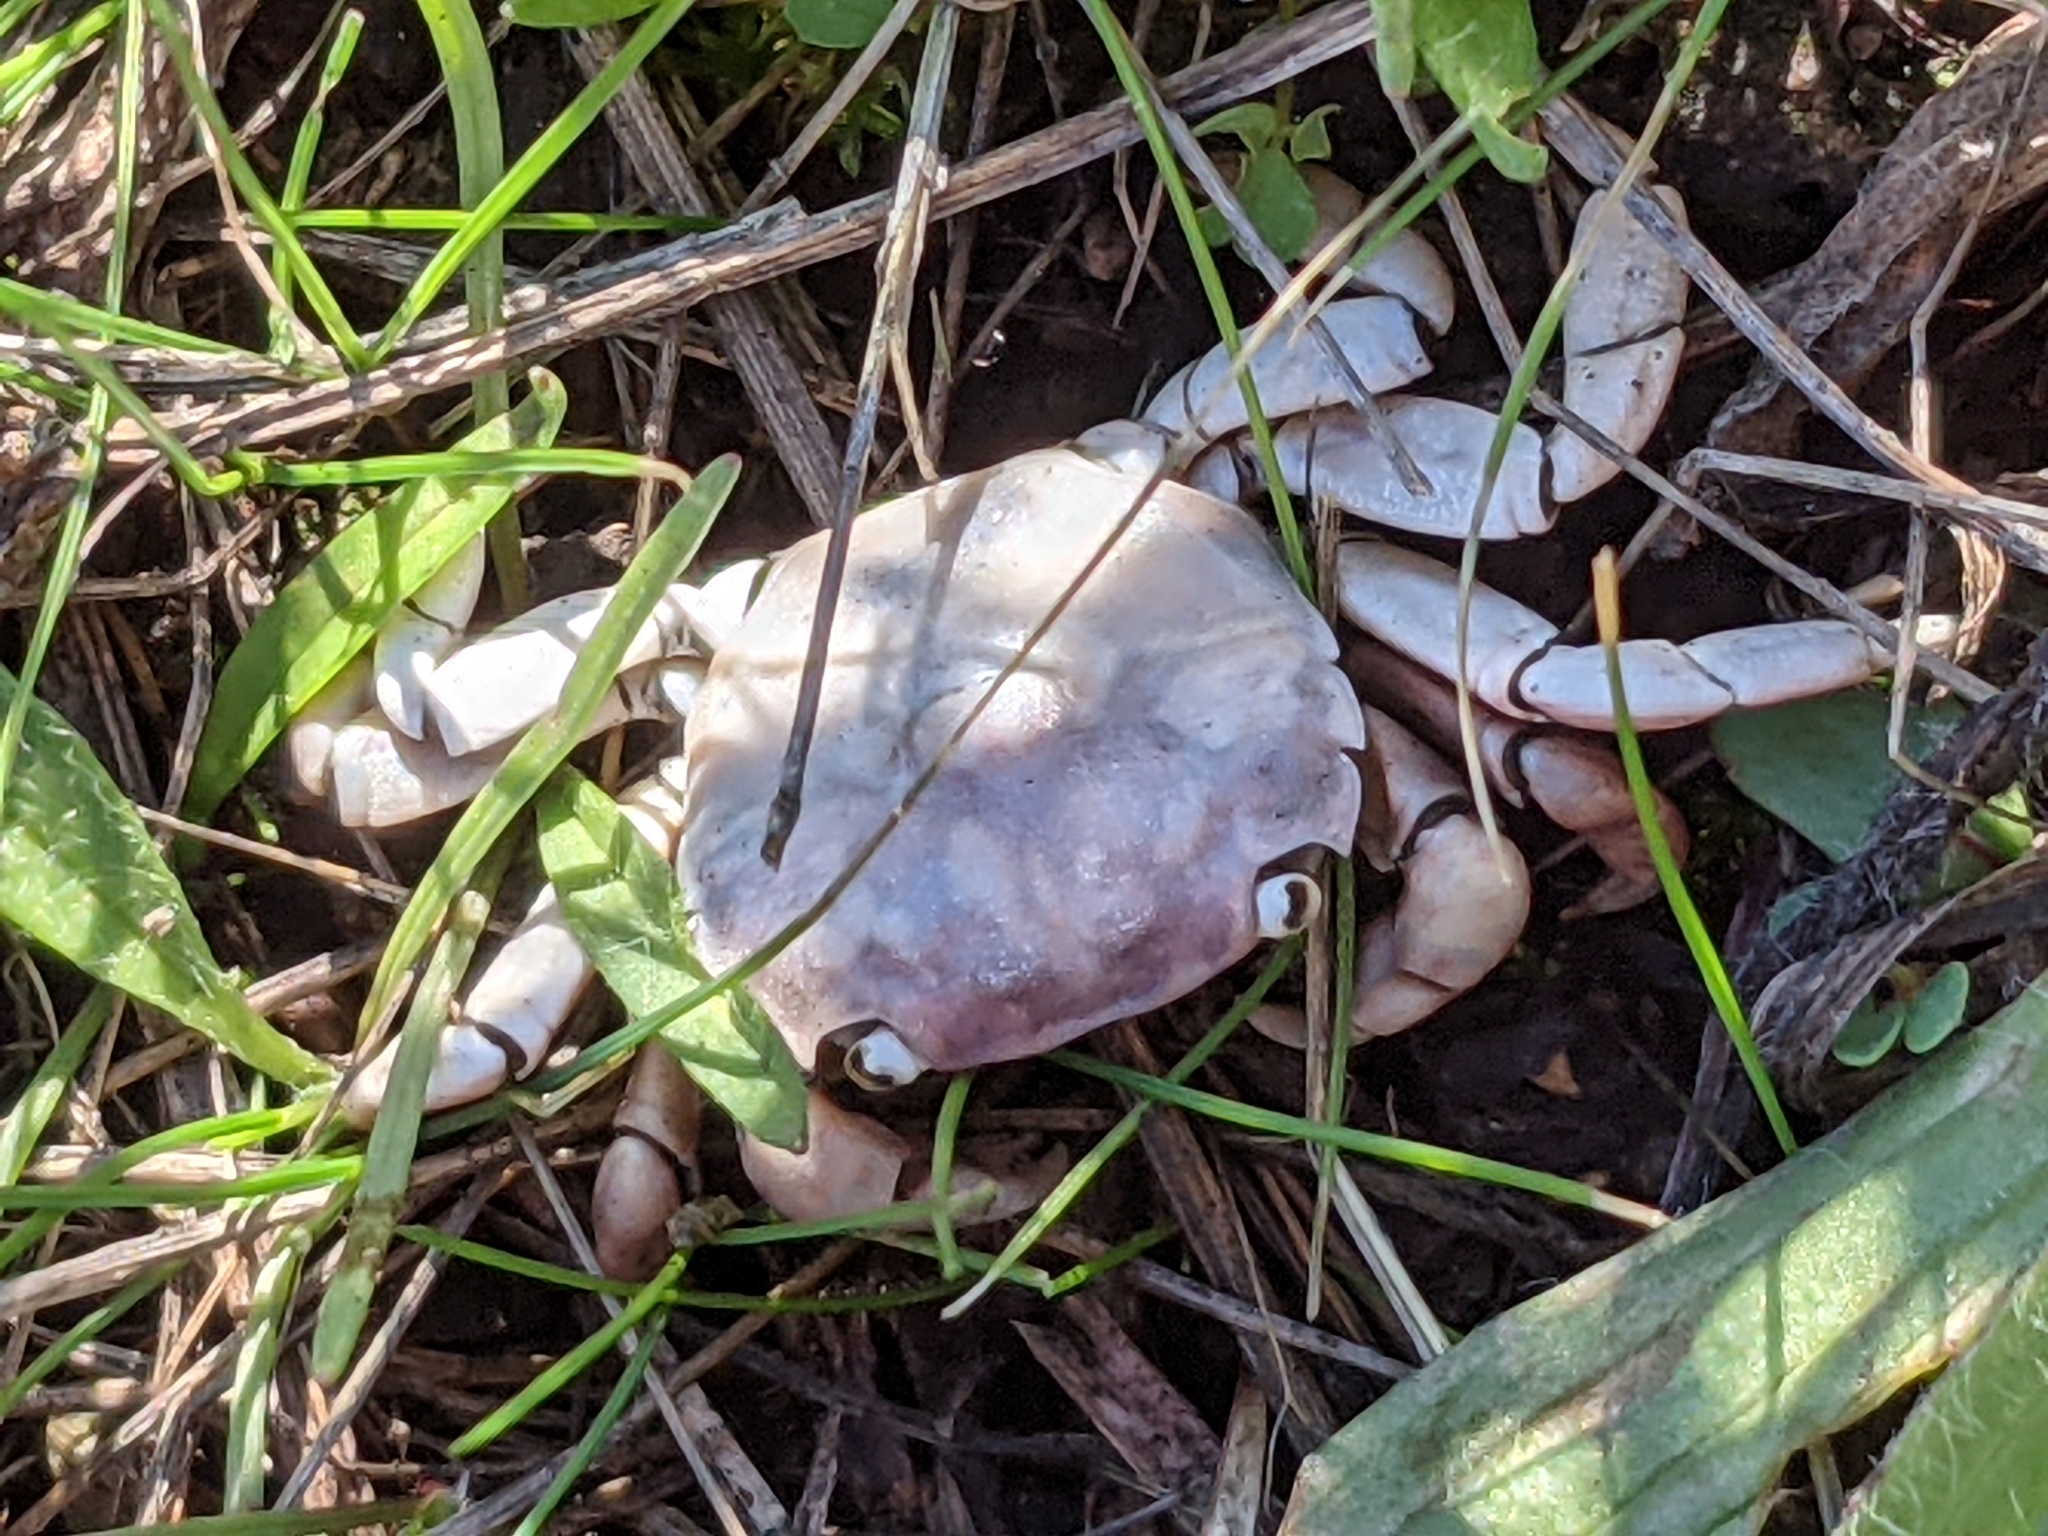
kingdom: Animalia
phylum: Arthropoda
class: Malacostraca
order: Decapoda
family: Varunidae
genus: Hemigrapsus
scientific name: Hemigrapsus nudus
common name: Purple shore crab
